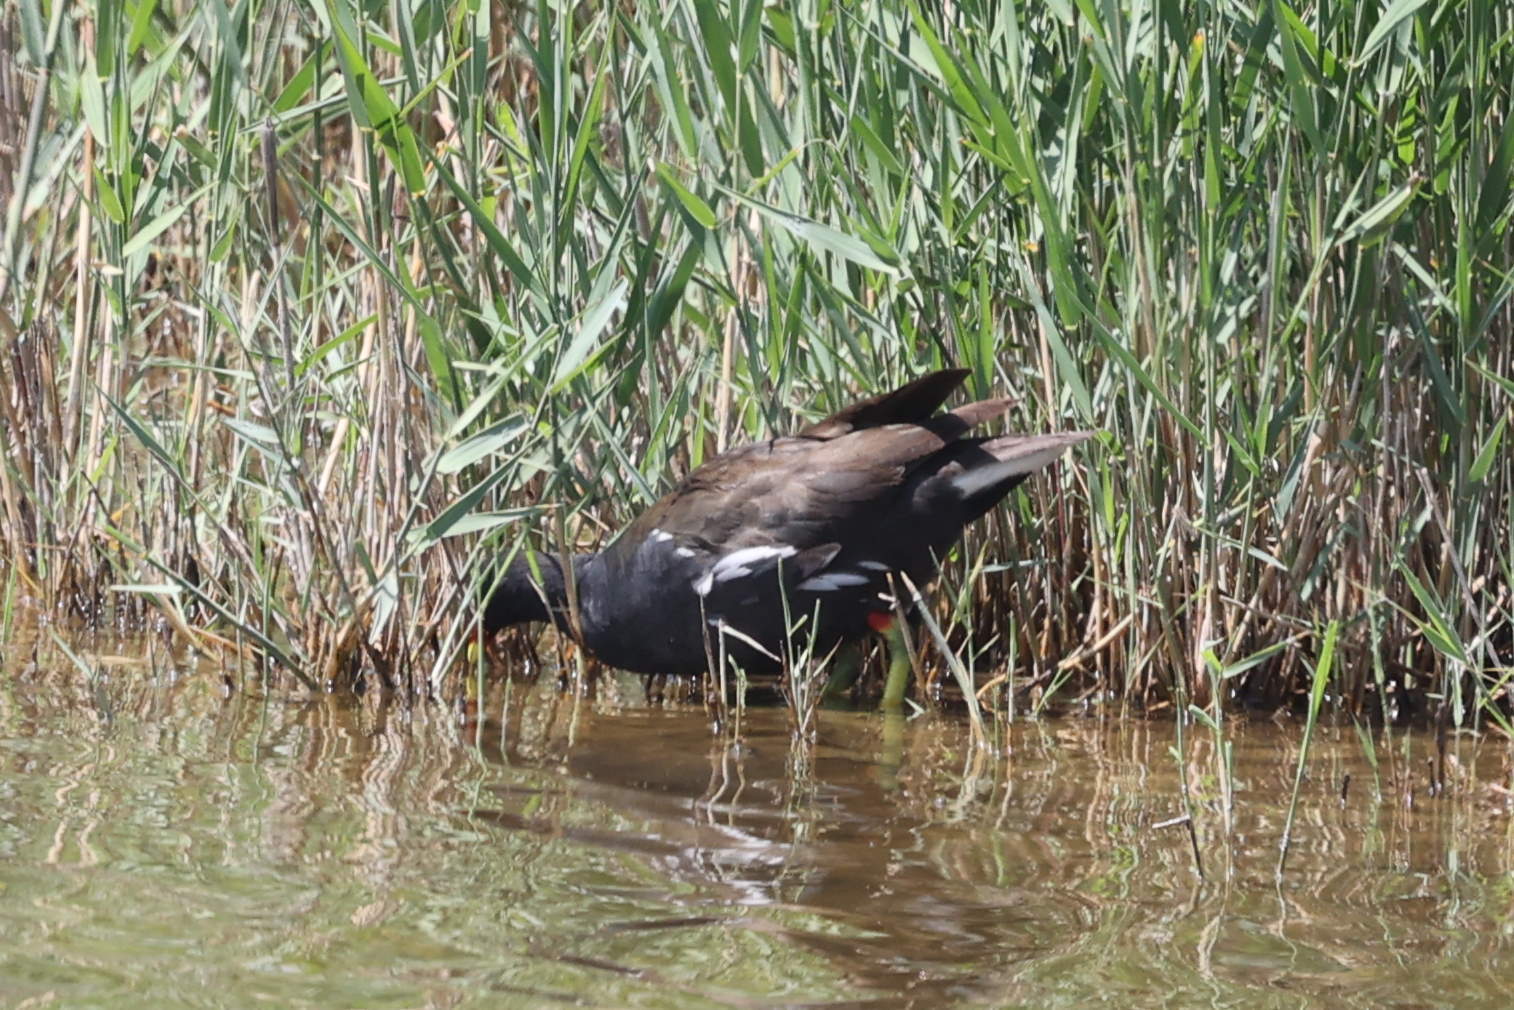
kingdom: Animalia
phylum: Chordata
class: Aves
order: Gruiformes
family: Rallidae
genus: Gallinula
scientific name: Gallinula chloropus
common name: Common moorhen
